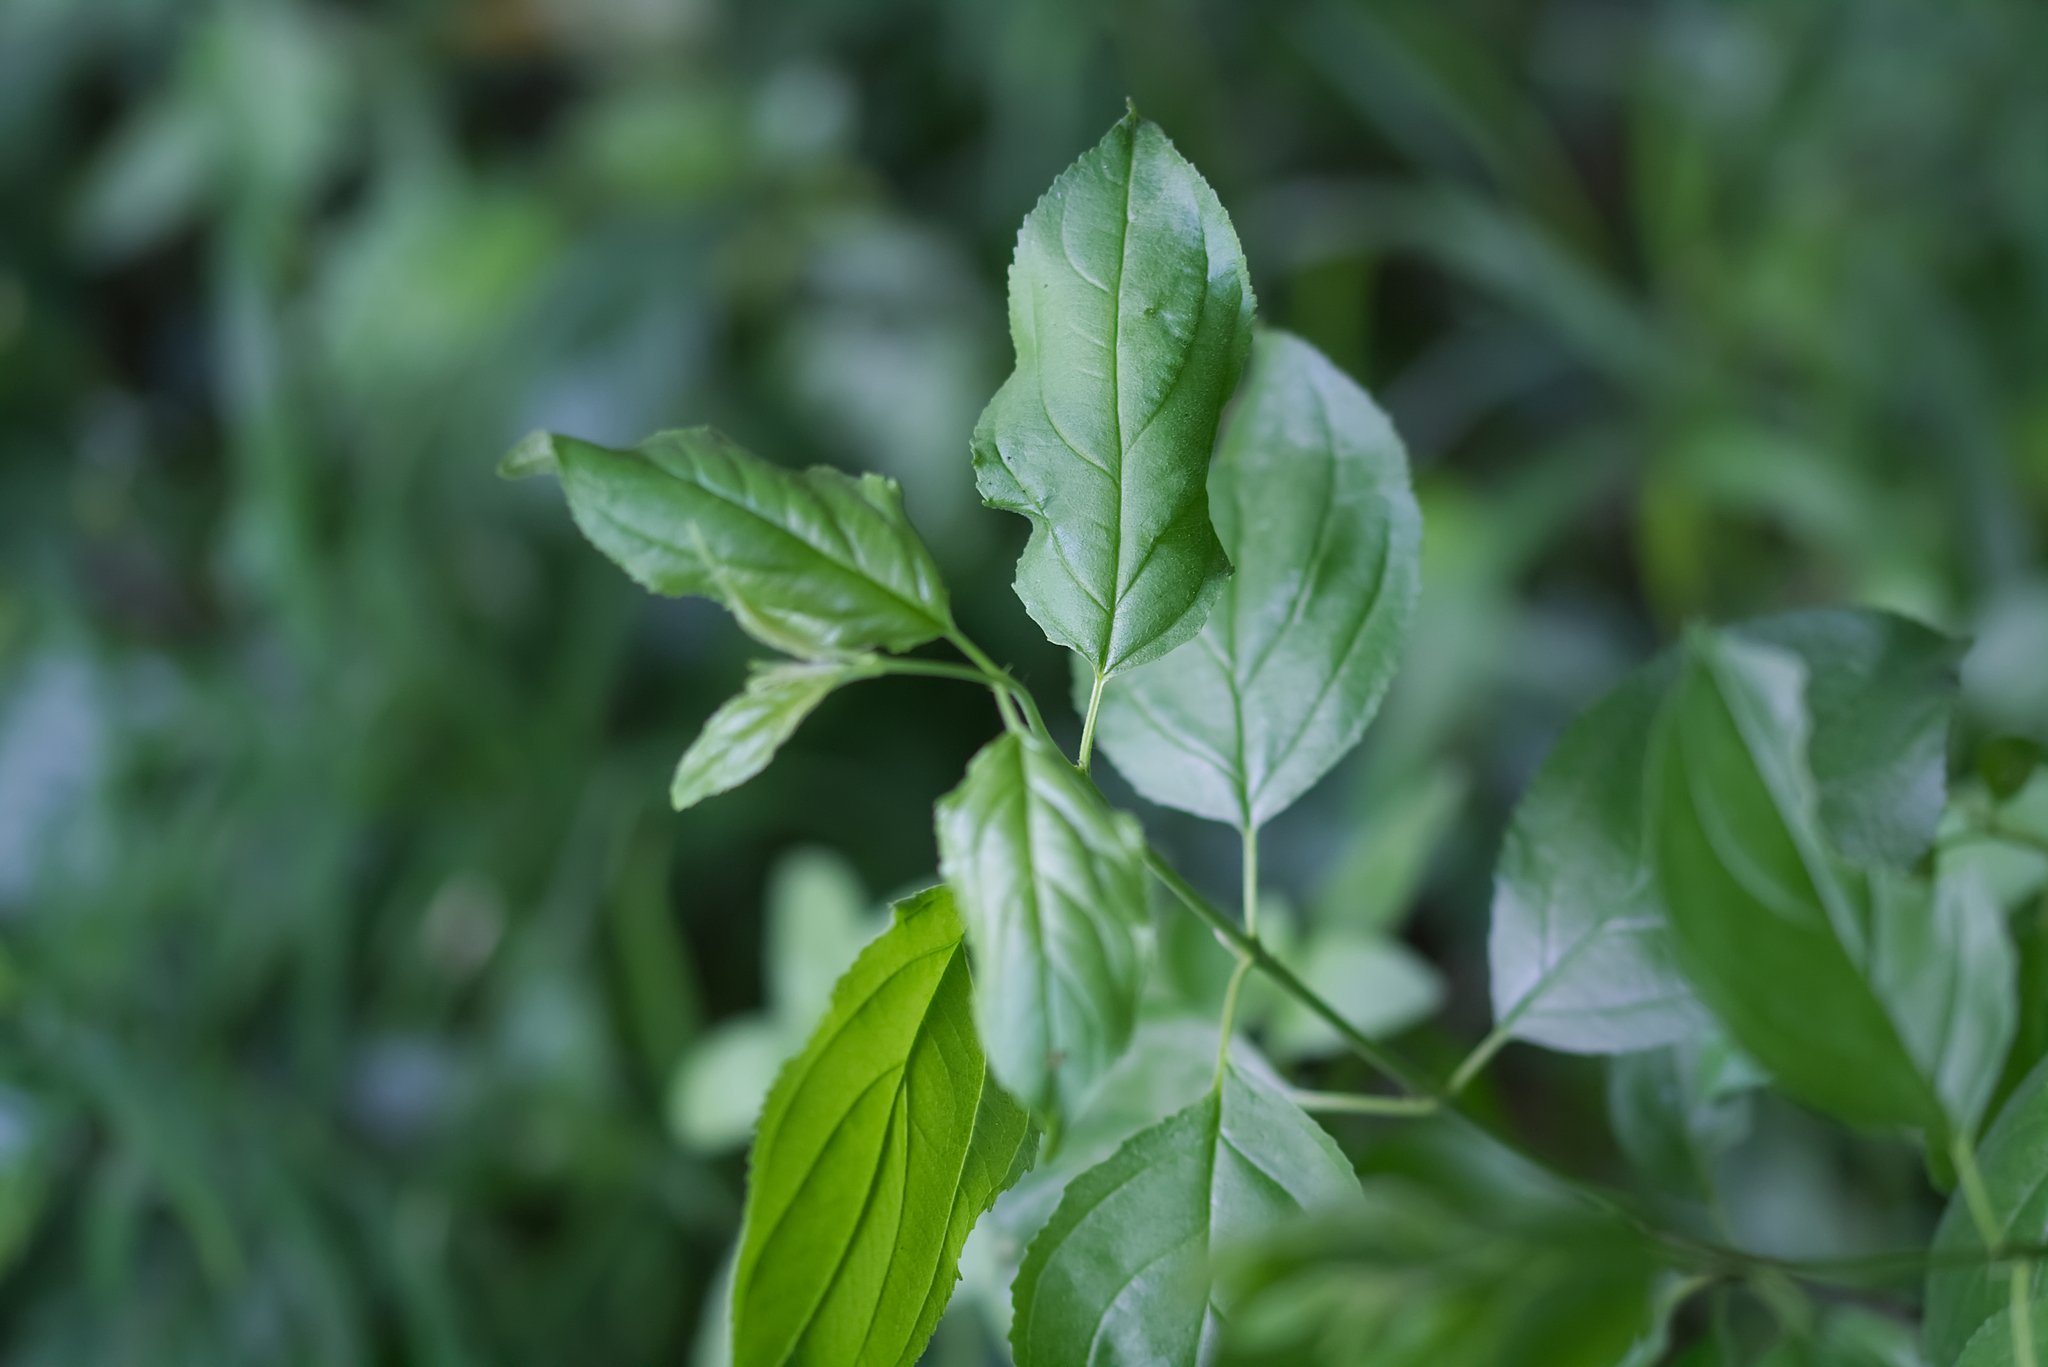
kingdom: Plantae
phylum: Tracheophyta
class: Magnoliopsida
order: Rosales
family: Rhamnaceae
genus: Rhamnus
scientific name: Rhamnus cathartica
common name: Common buckthorn
